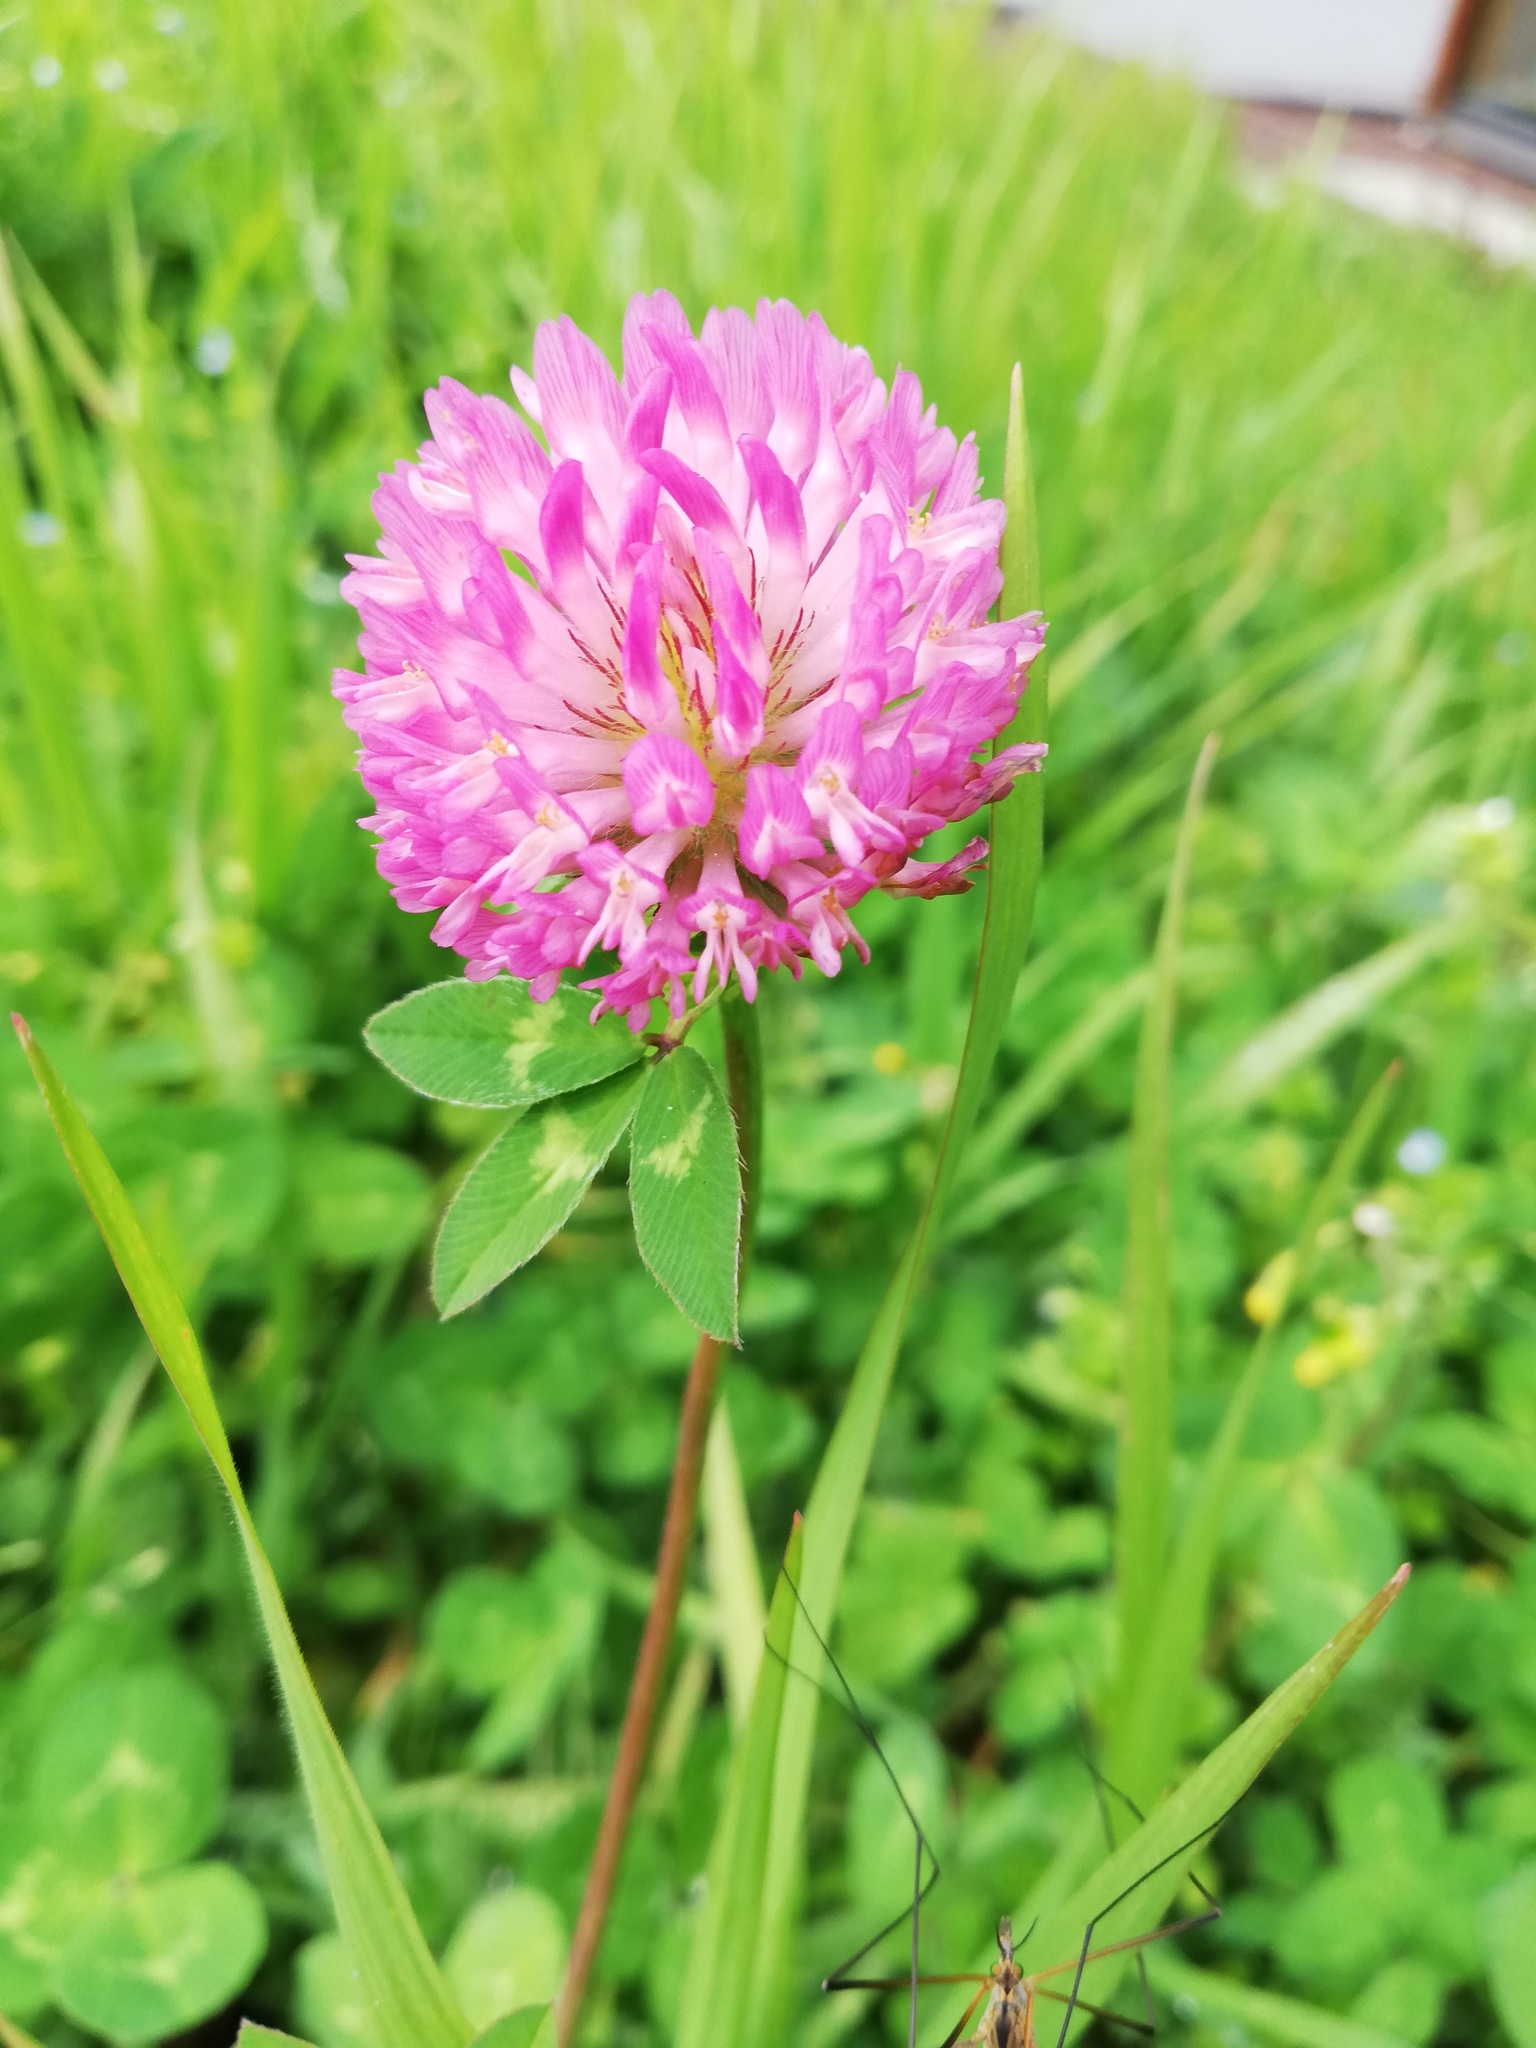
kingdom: Plantae
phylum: Tracheophyta
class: Magnoliopsida
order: Fabales
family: Fabaceae
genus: Trifolium
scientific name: Trifolium pratense
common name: Red clover
